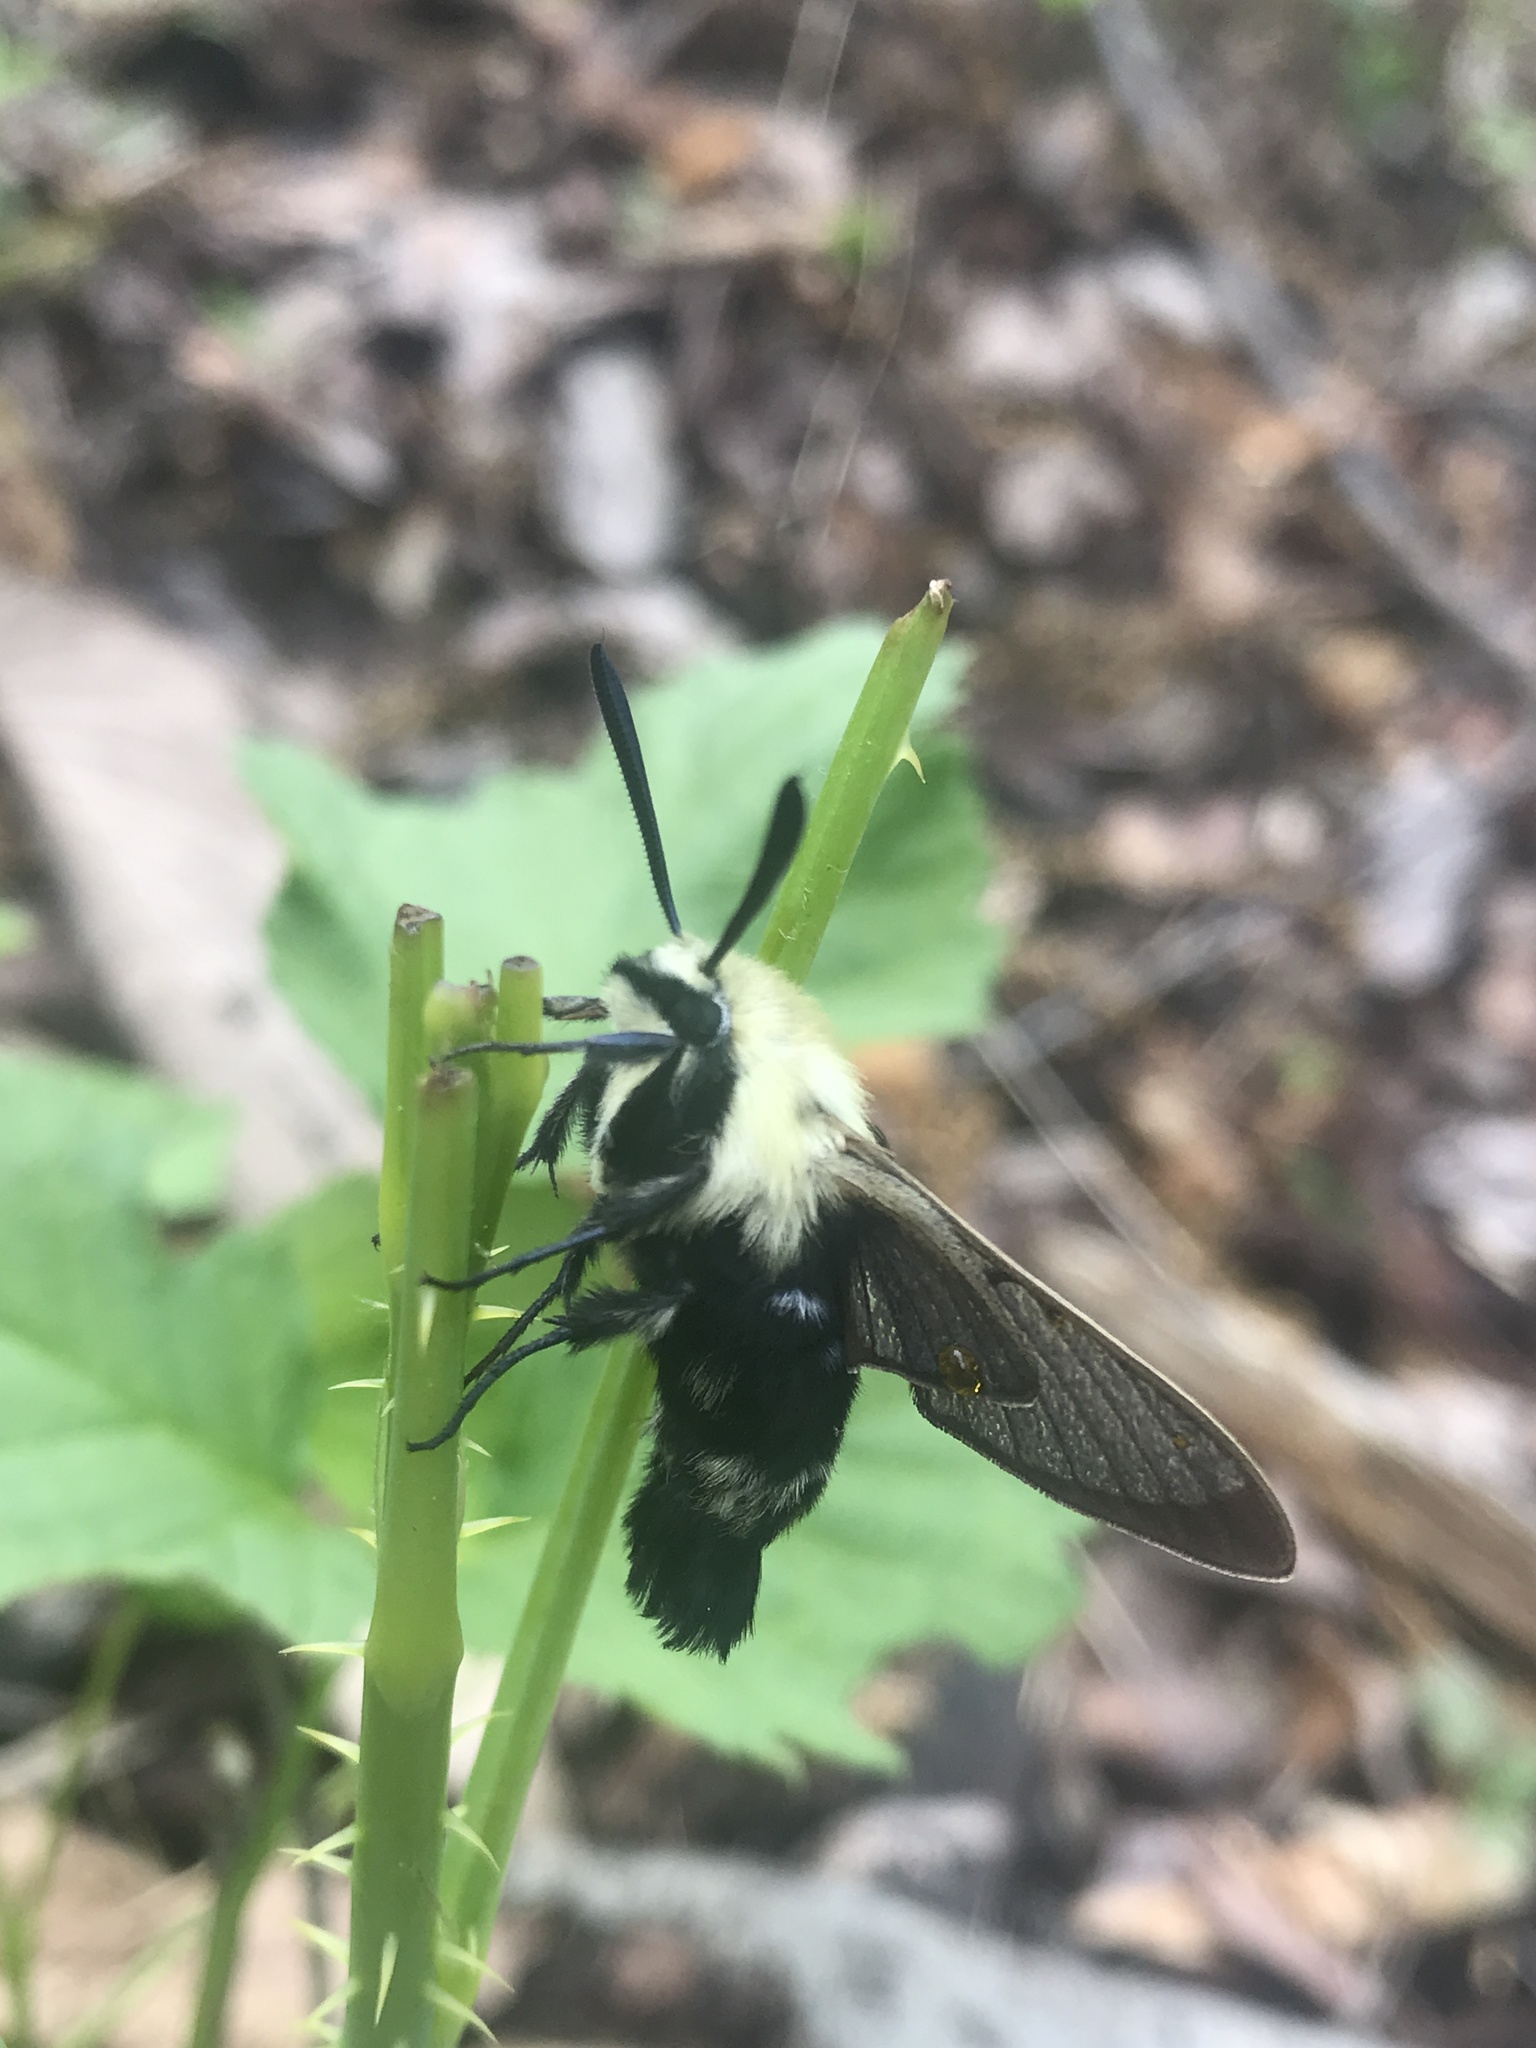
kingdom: Animalia
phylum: Arthropoda
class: Insecta
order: Lepidoptera
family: Sphingidae
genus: Hemaris
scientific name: Hemaris diffinis
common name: Bumblebee moth
